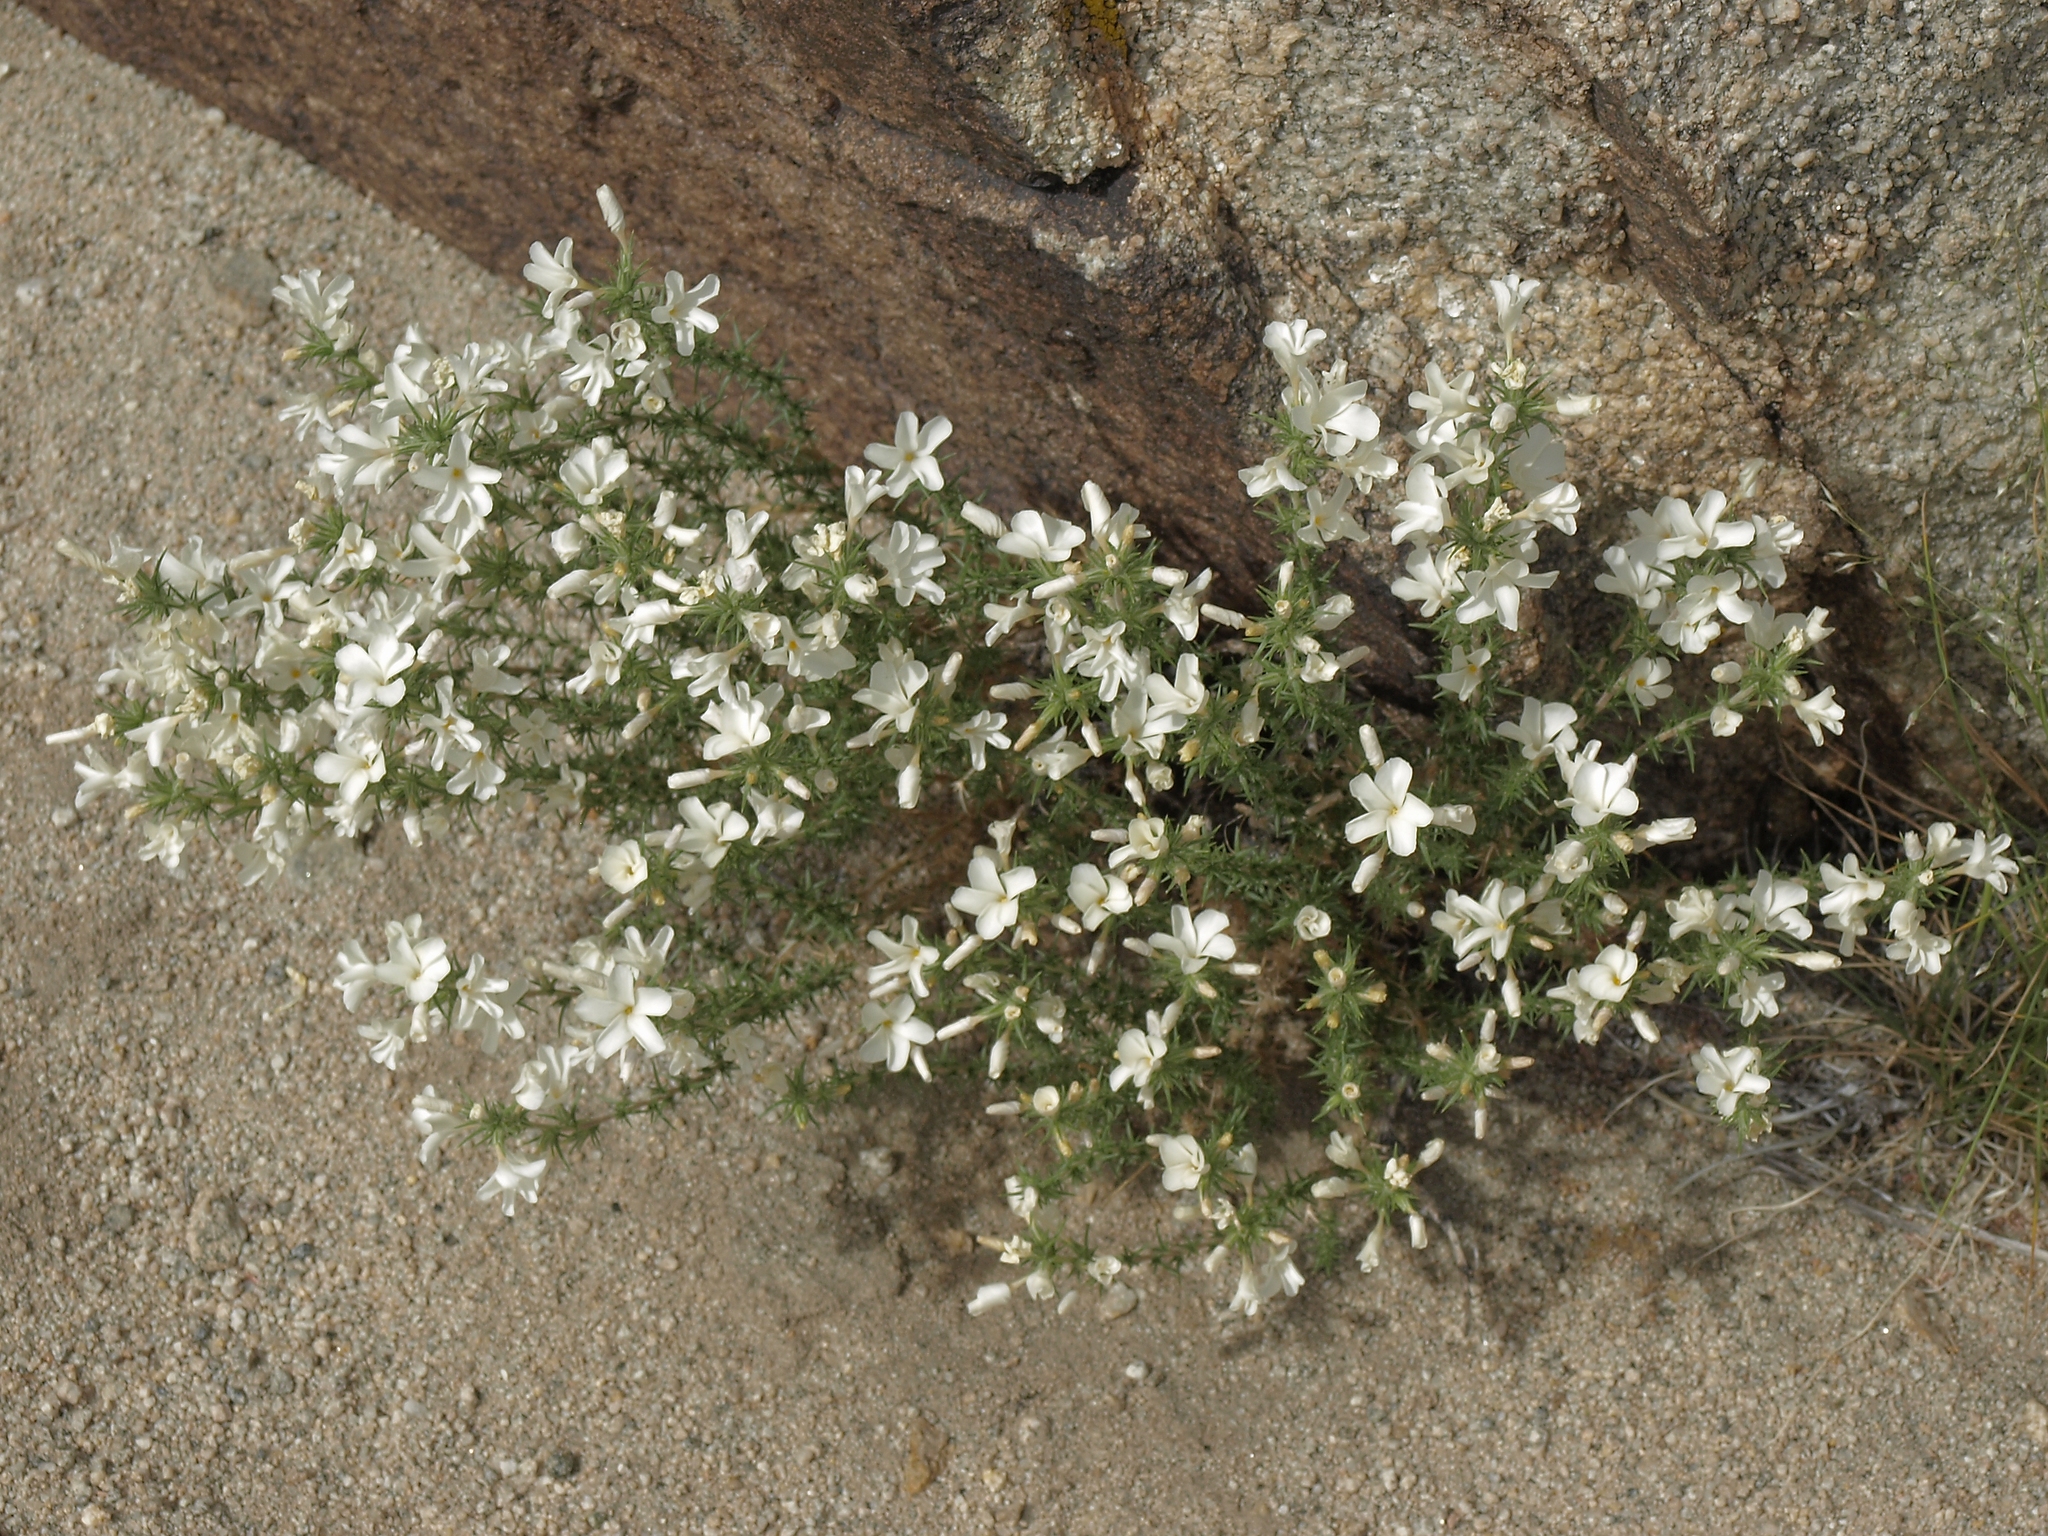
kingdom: Plantae
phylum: Tracheophyta
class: Magnoliopsida
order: Ericales
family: Polemoniaceae
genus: Linanthus
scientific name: Linanthus pungens
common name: Granite prickly phlox
